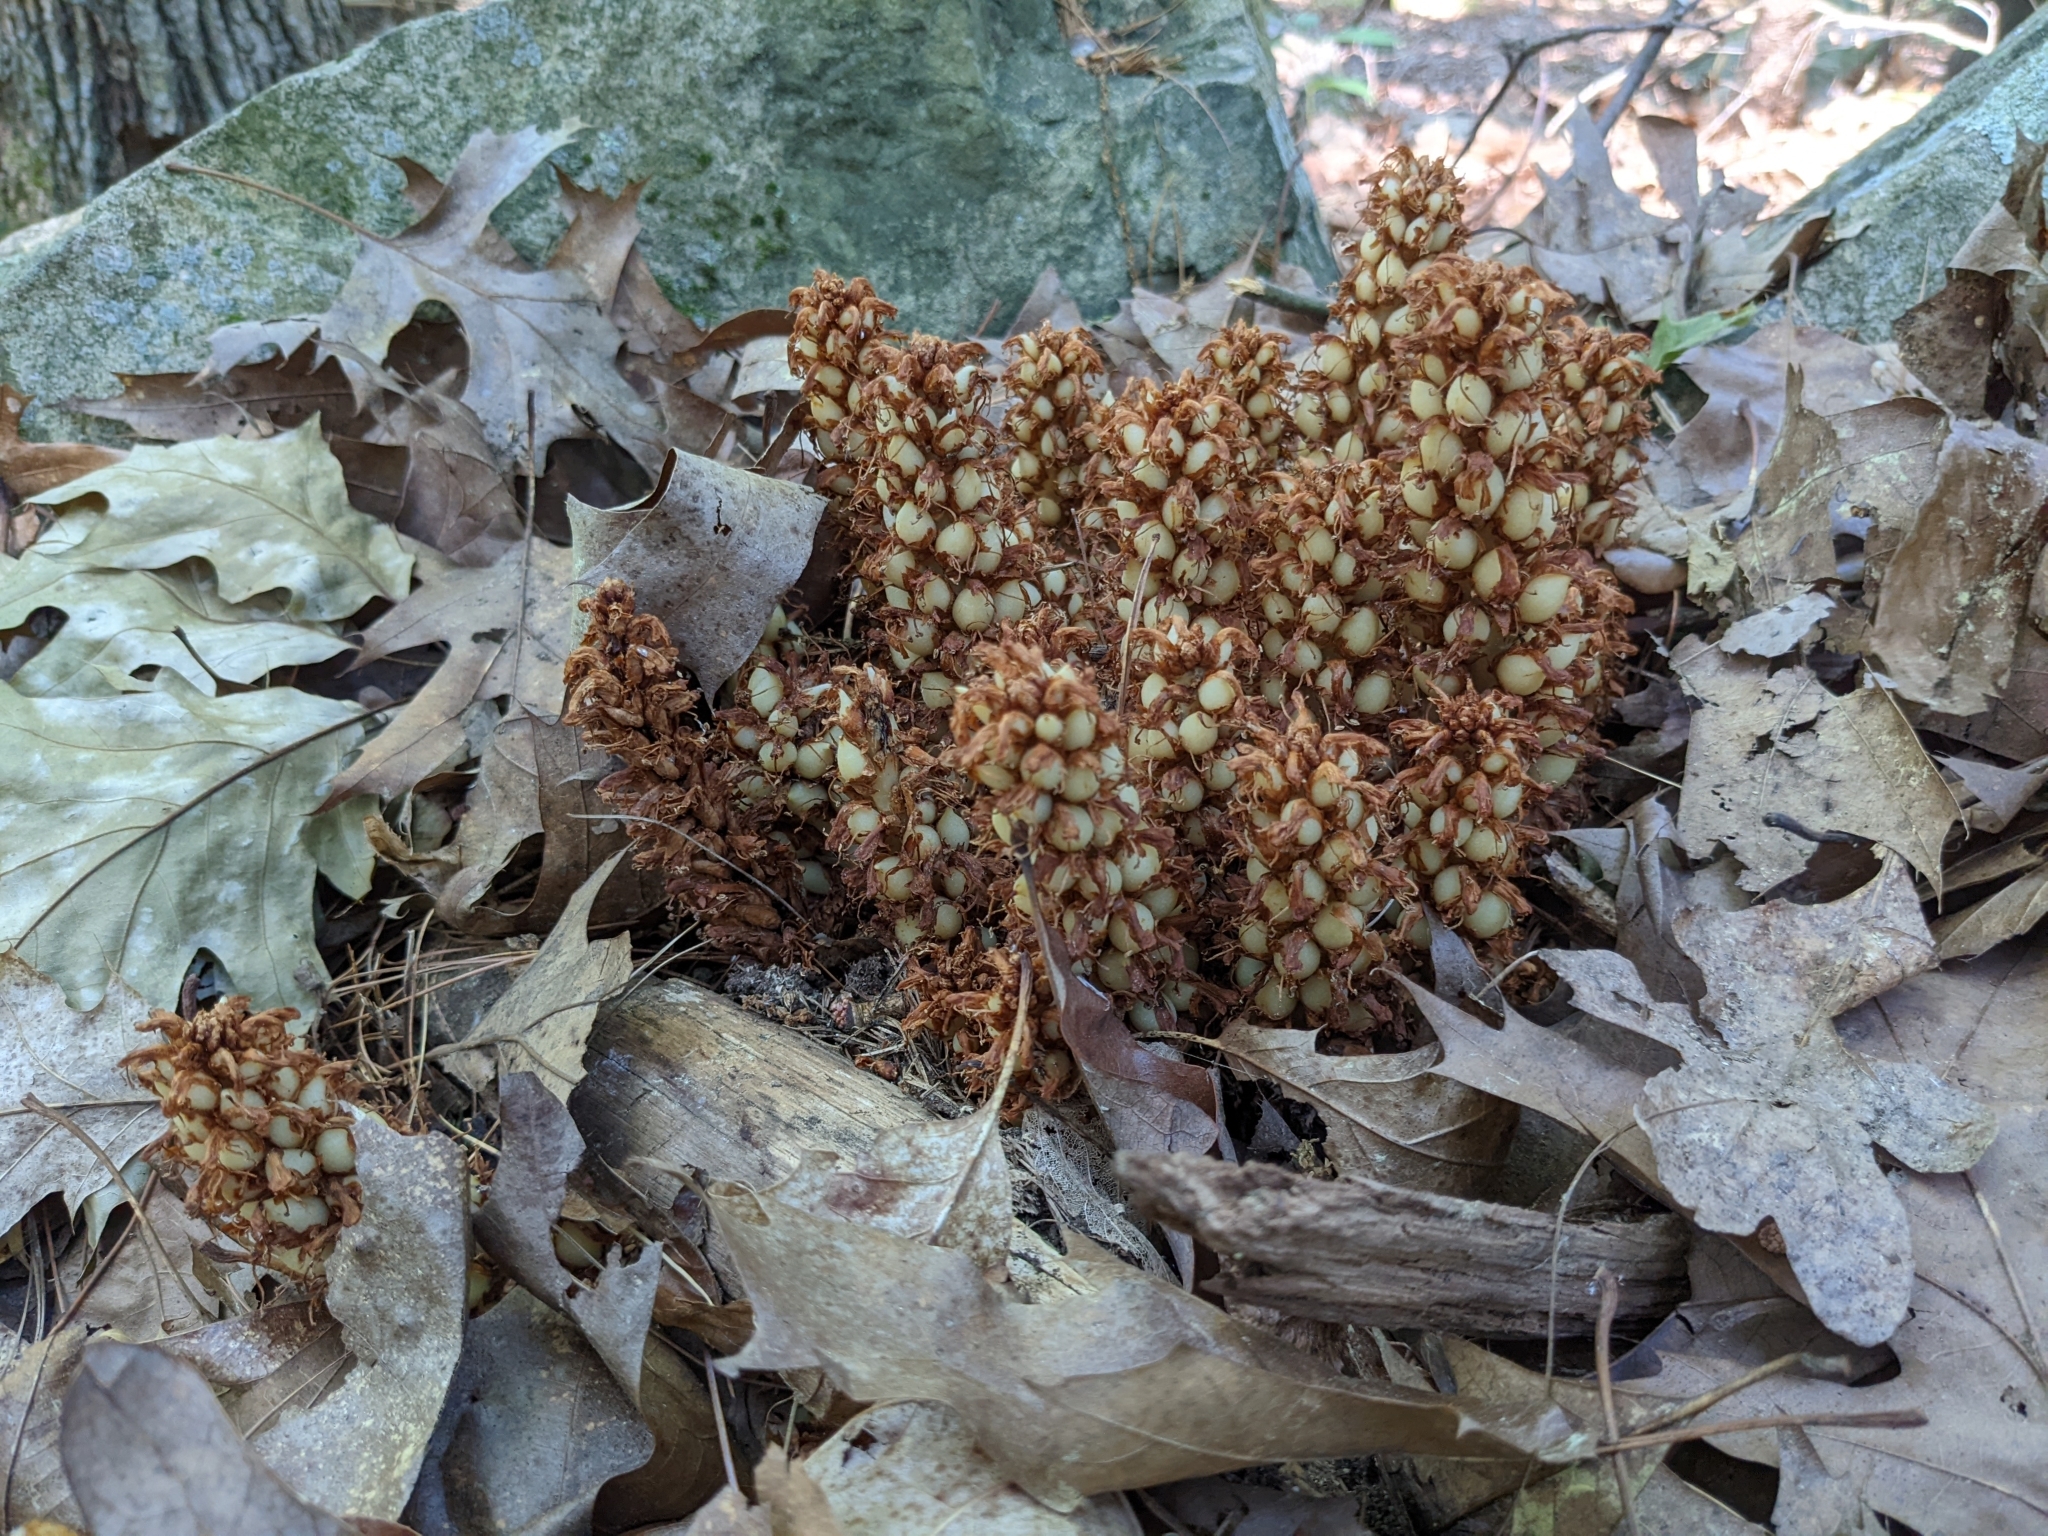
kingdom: Plantae
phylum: Tracheophyta
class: Magnoliopsida
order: Lamiales
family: Orobanchaceae
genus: Conopholis
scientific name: Conopholis americana
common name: American cancer-root
